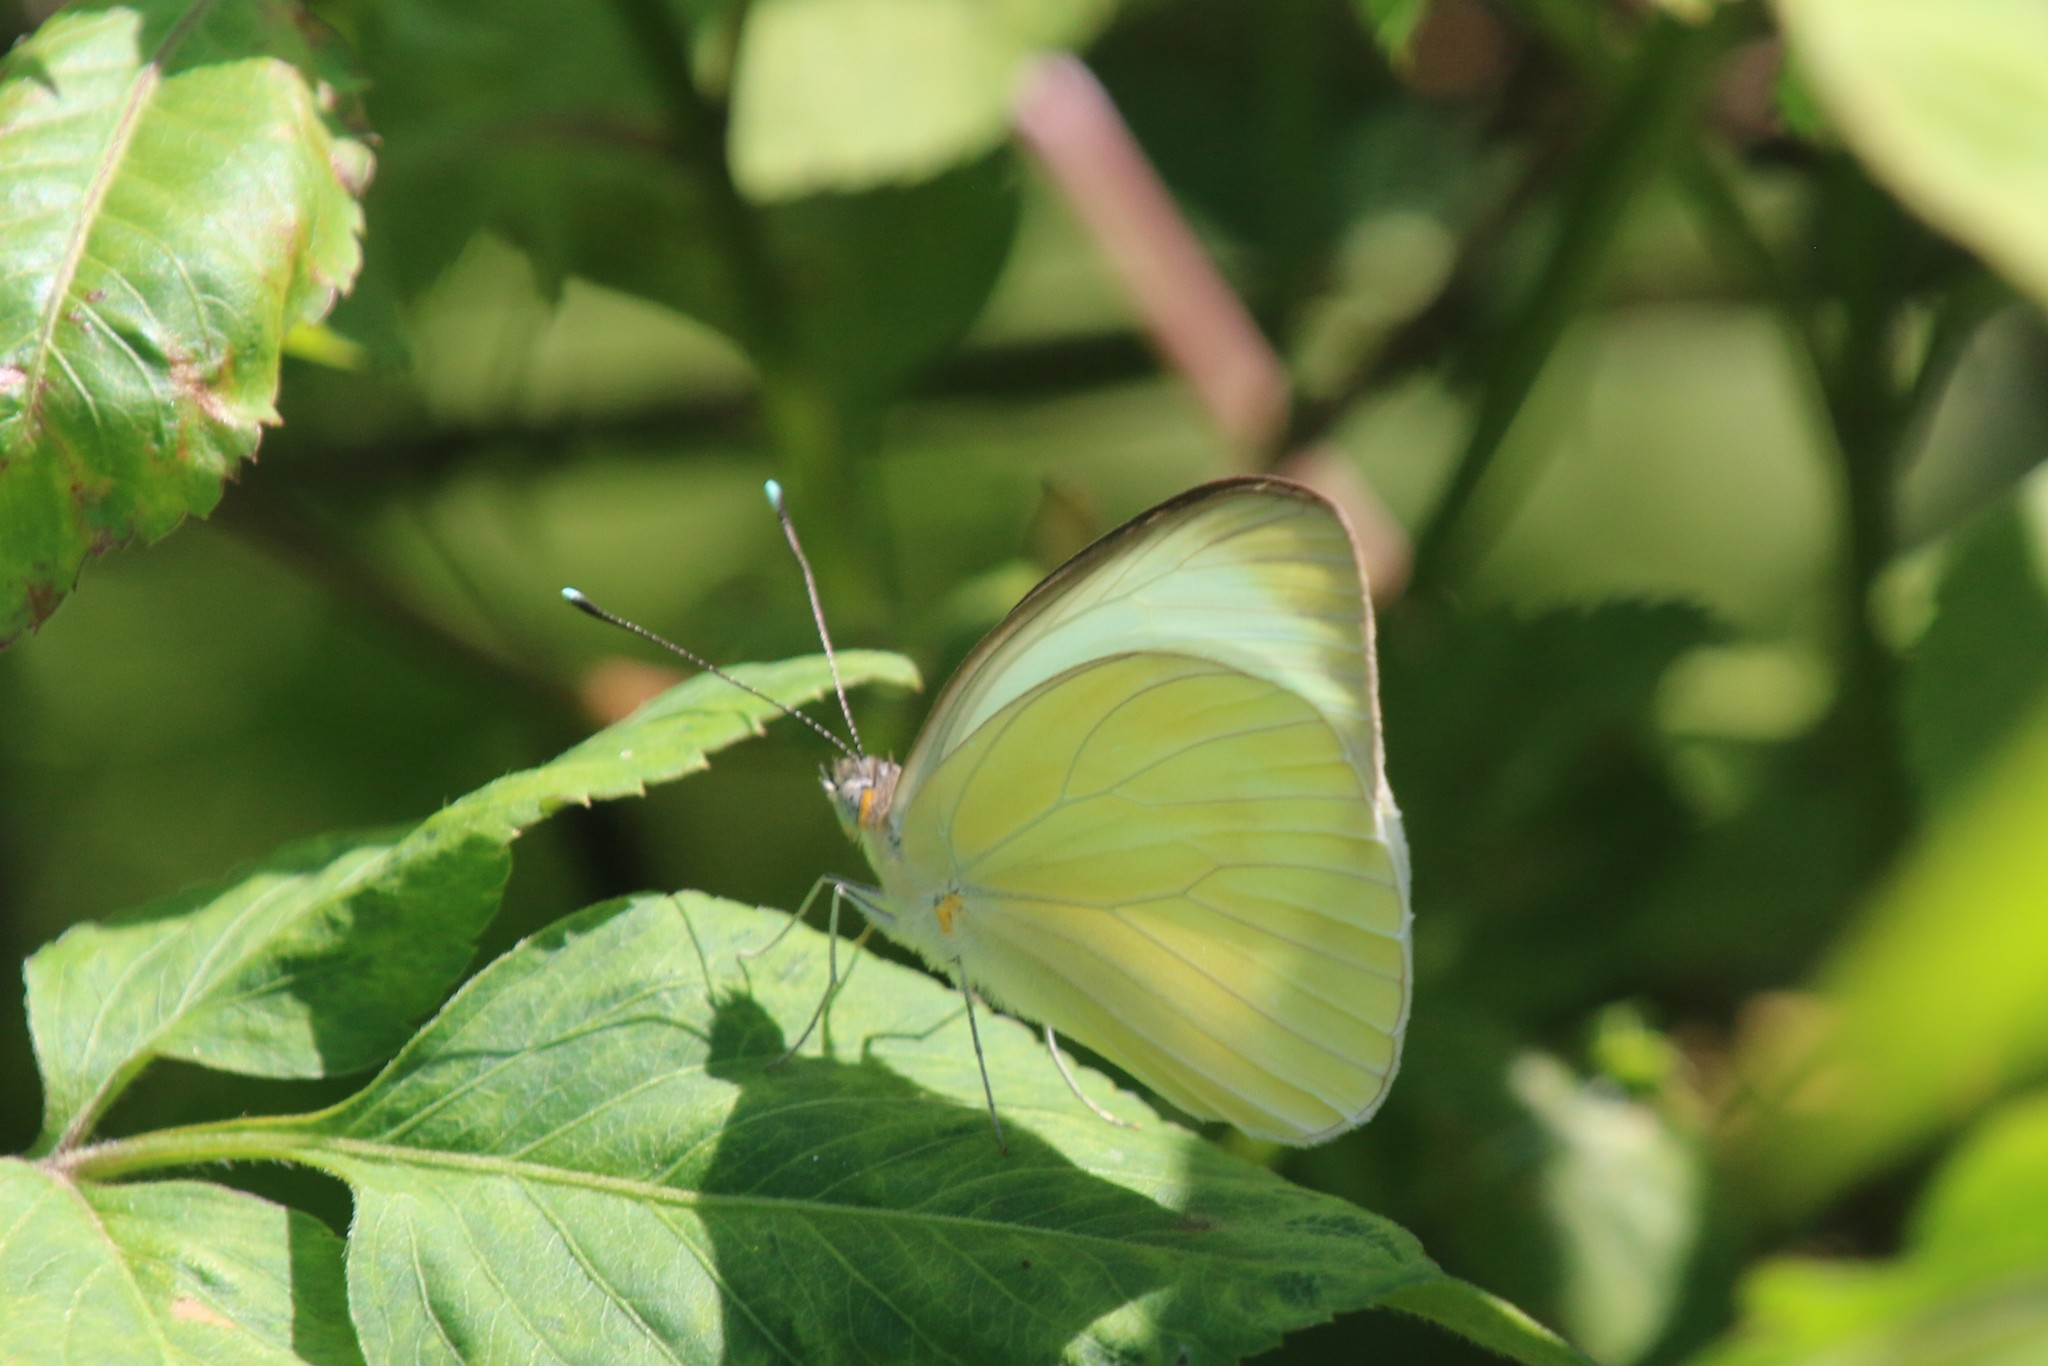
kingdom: Animalia
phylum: Arthropoda
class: Insecta
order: Lepidoptera
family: Pieridae
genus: Ascia
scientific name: Ascia monuste
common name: Great southern white
